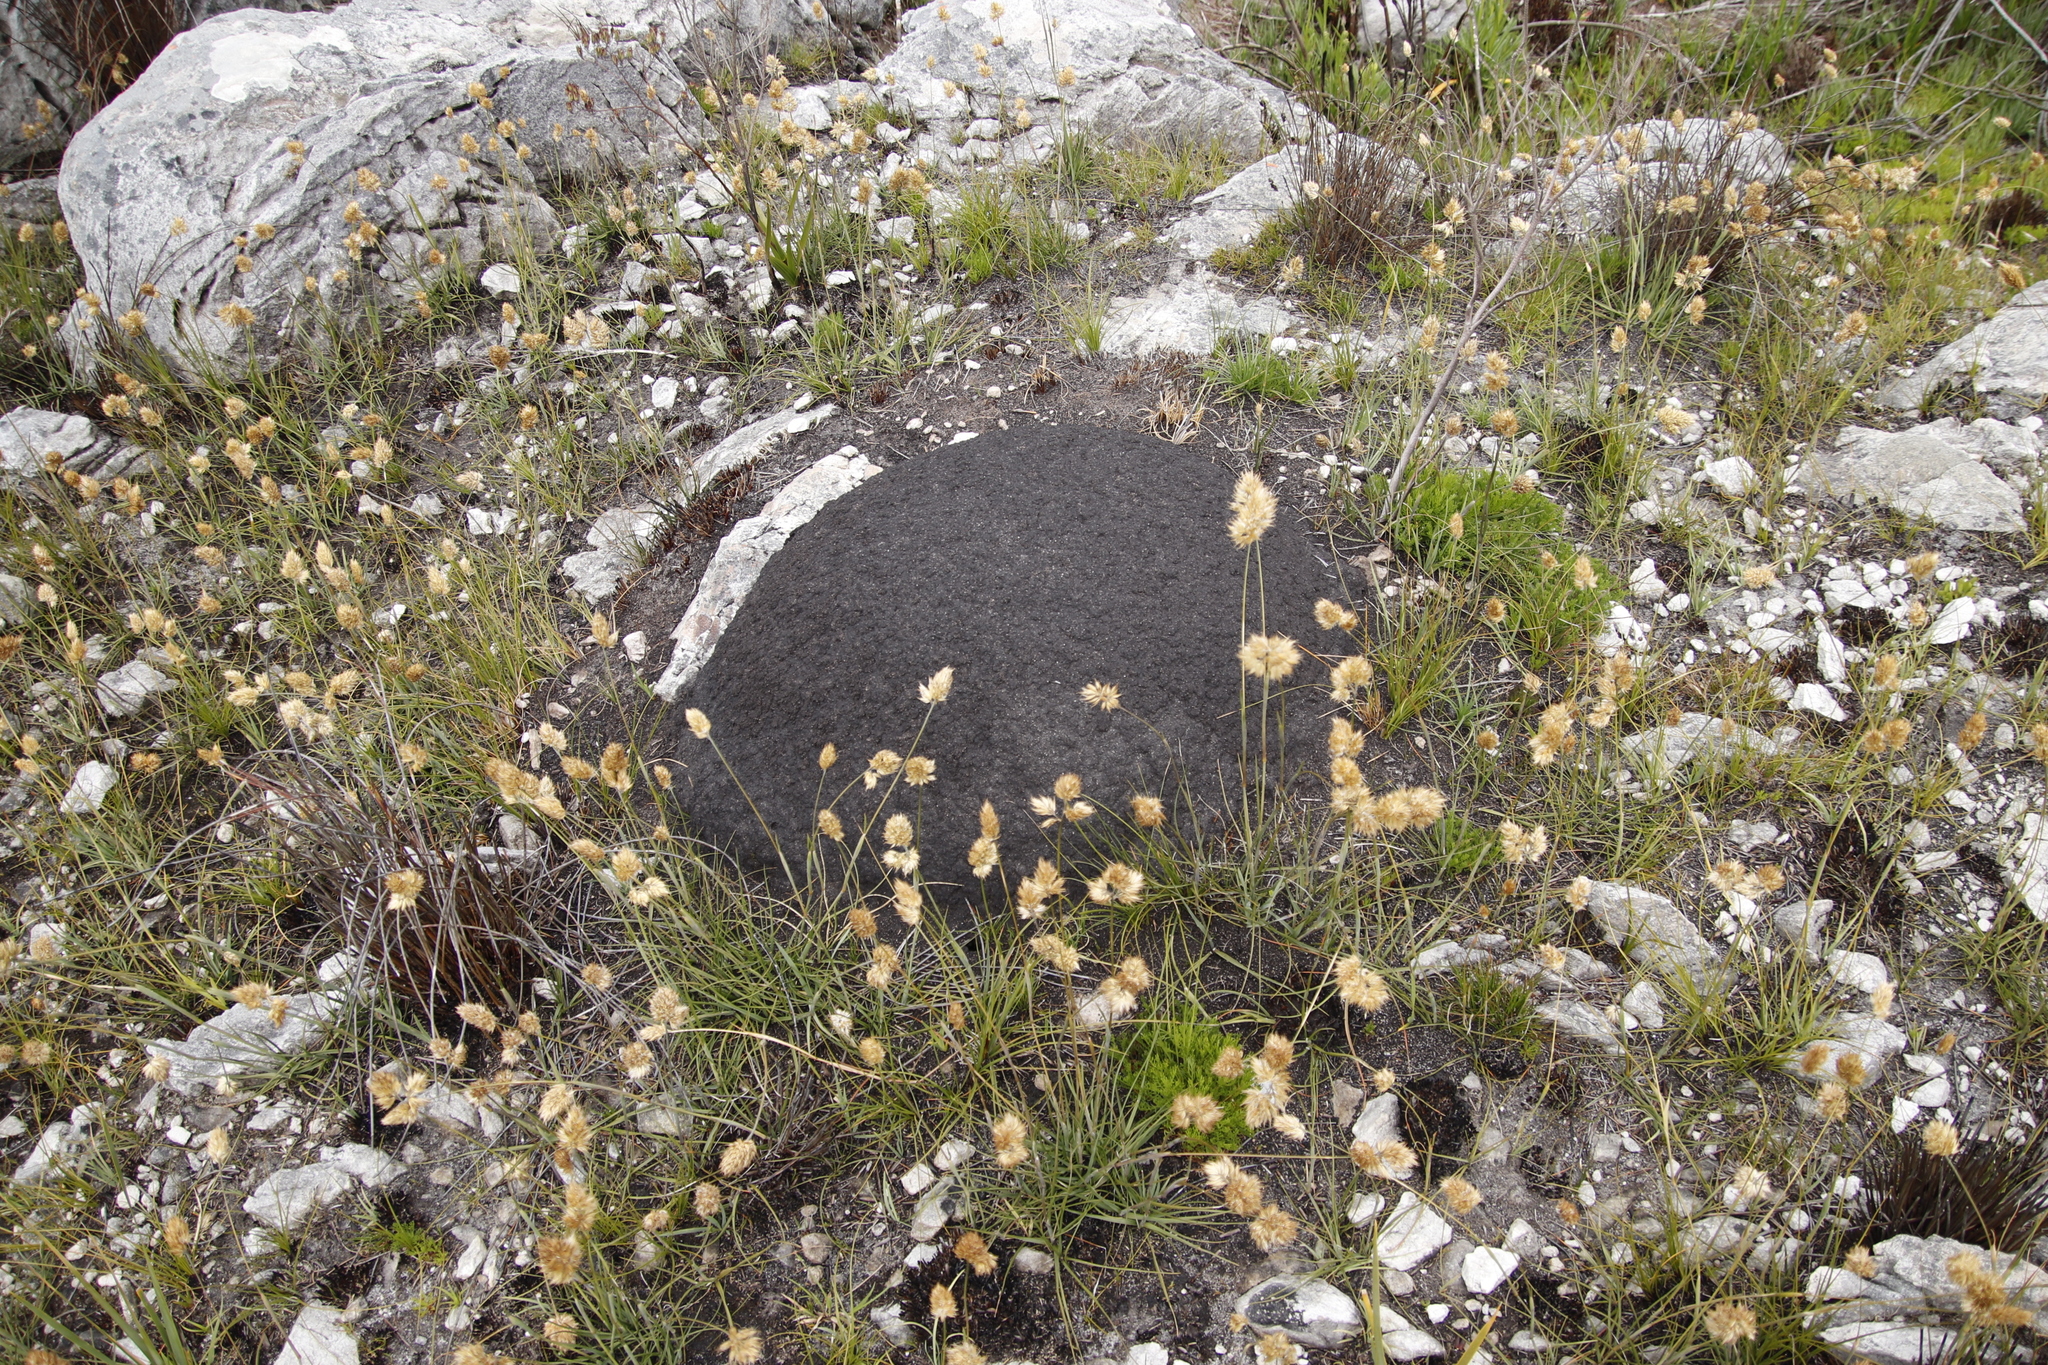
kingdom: Plantae
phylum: Tracheophyta
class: Liliopsida
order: Poales
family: Poaceae
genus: Geochloa
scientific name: Geochloa rufa
